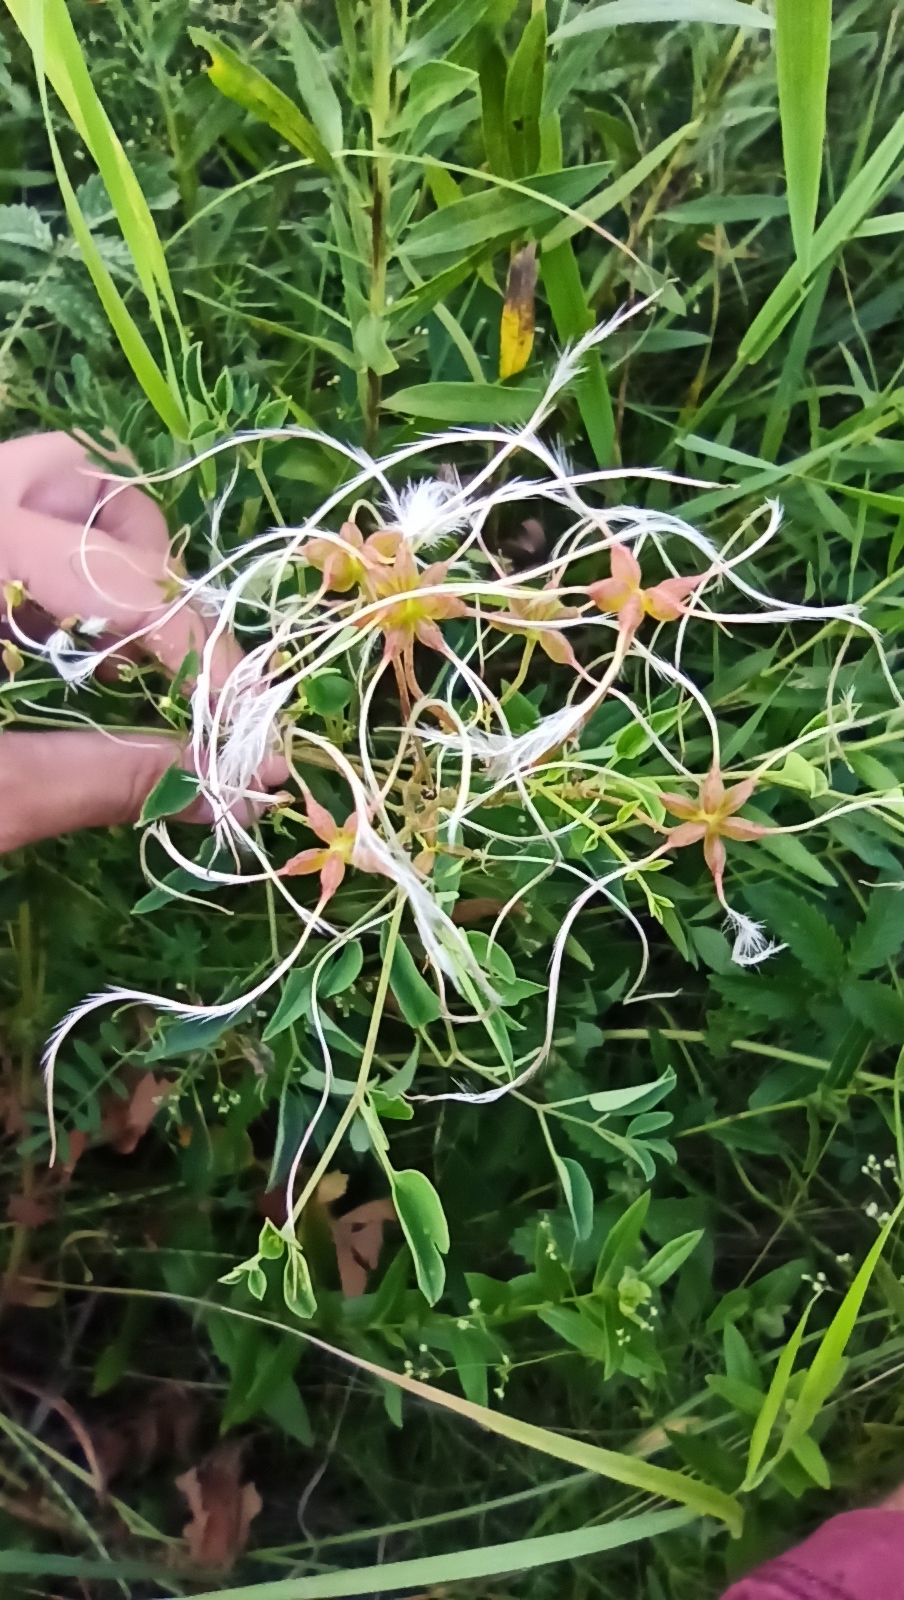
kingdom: Plantae
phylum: Tracheophyta
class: Magnoliopsida
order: Ranunculales
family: Ranunculaceae
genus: Clematis
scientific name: Clematis lathyrifolia
